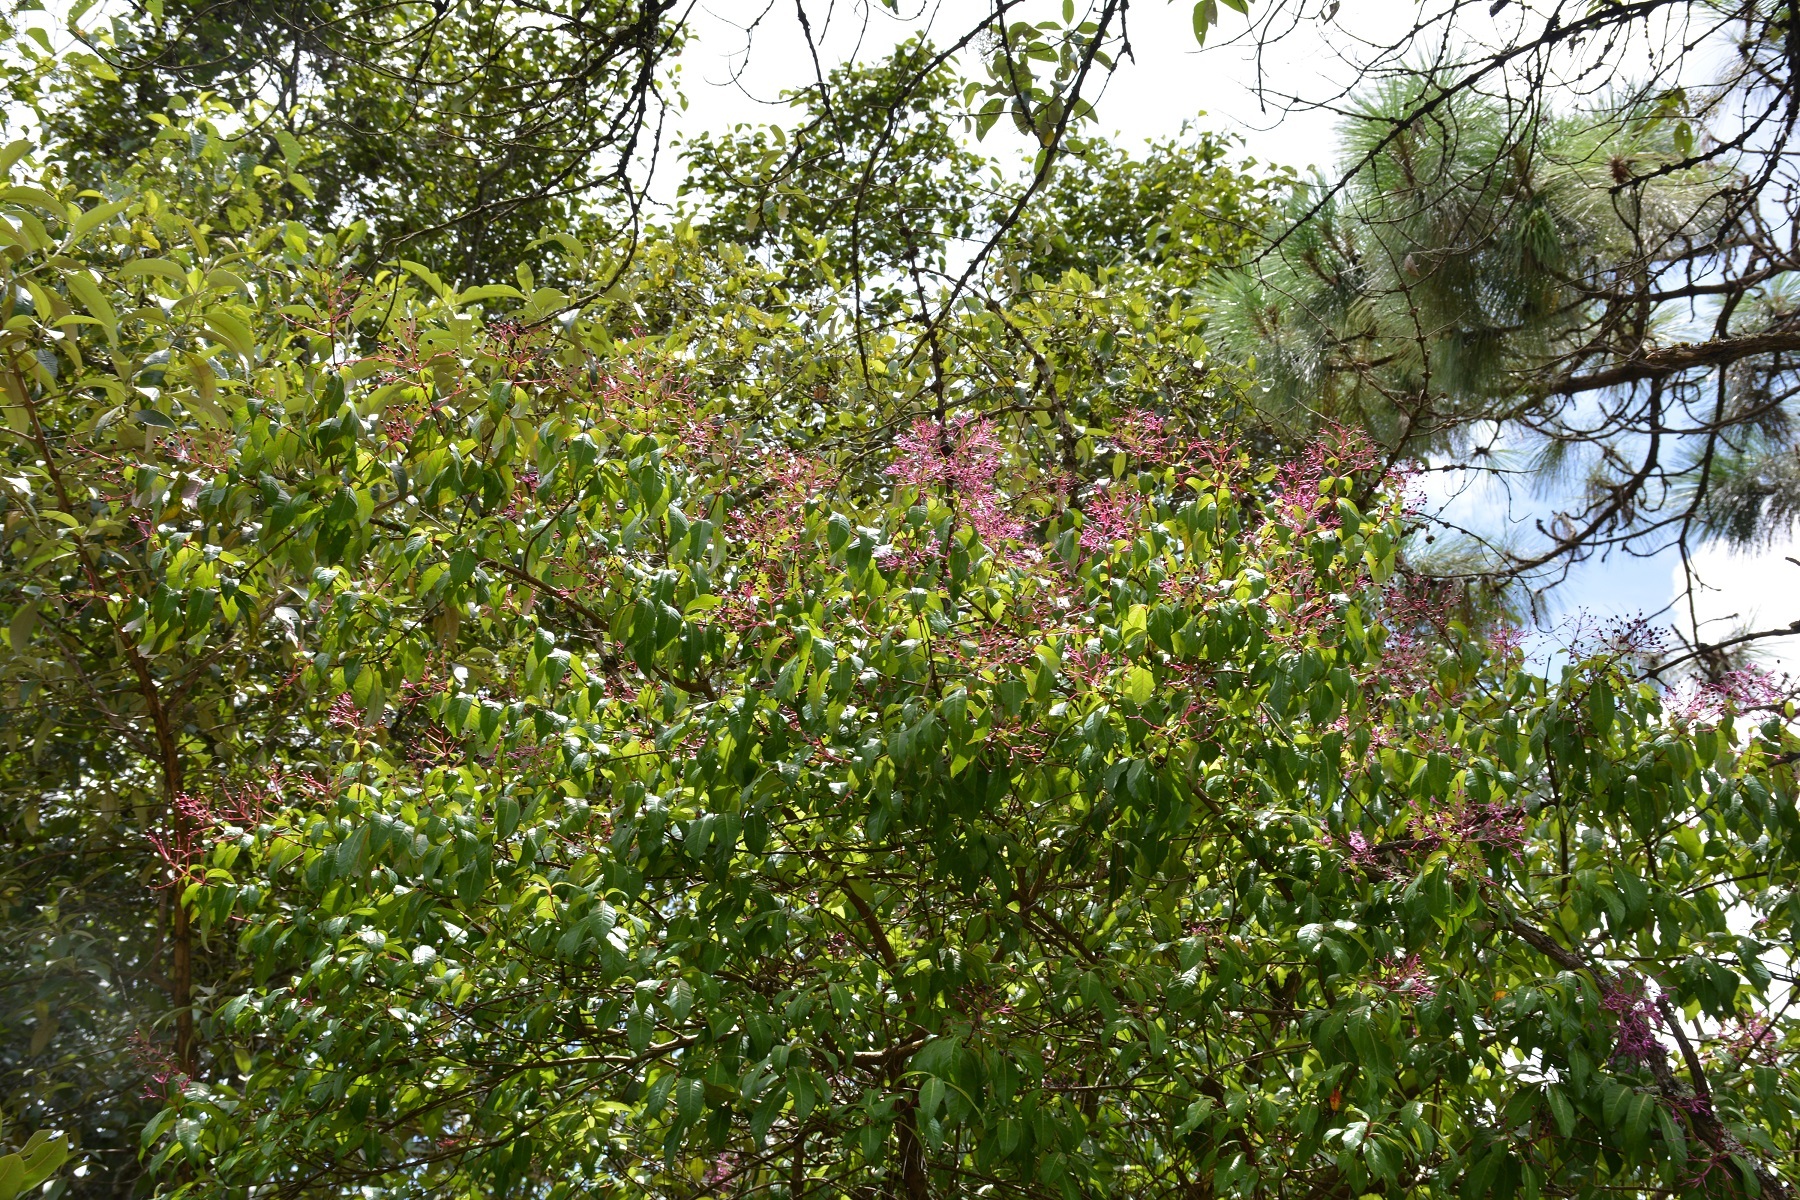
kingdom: Plantae
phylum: Tracheophyta
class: Magnoliopsida
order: Myrtales
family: Onagraceae
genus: Fuchsia
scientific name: Fuchsia paniculata
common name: Shrubby fuchsia
